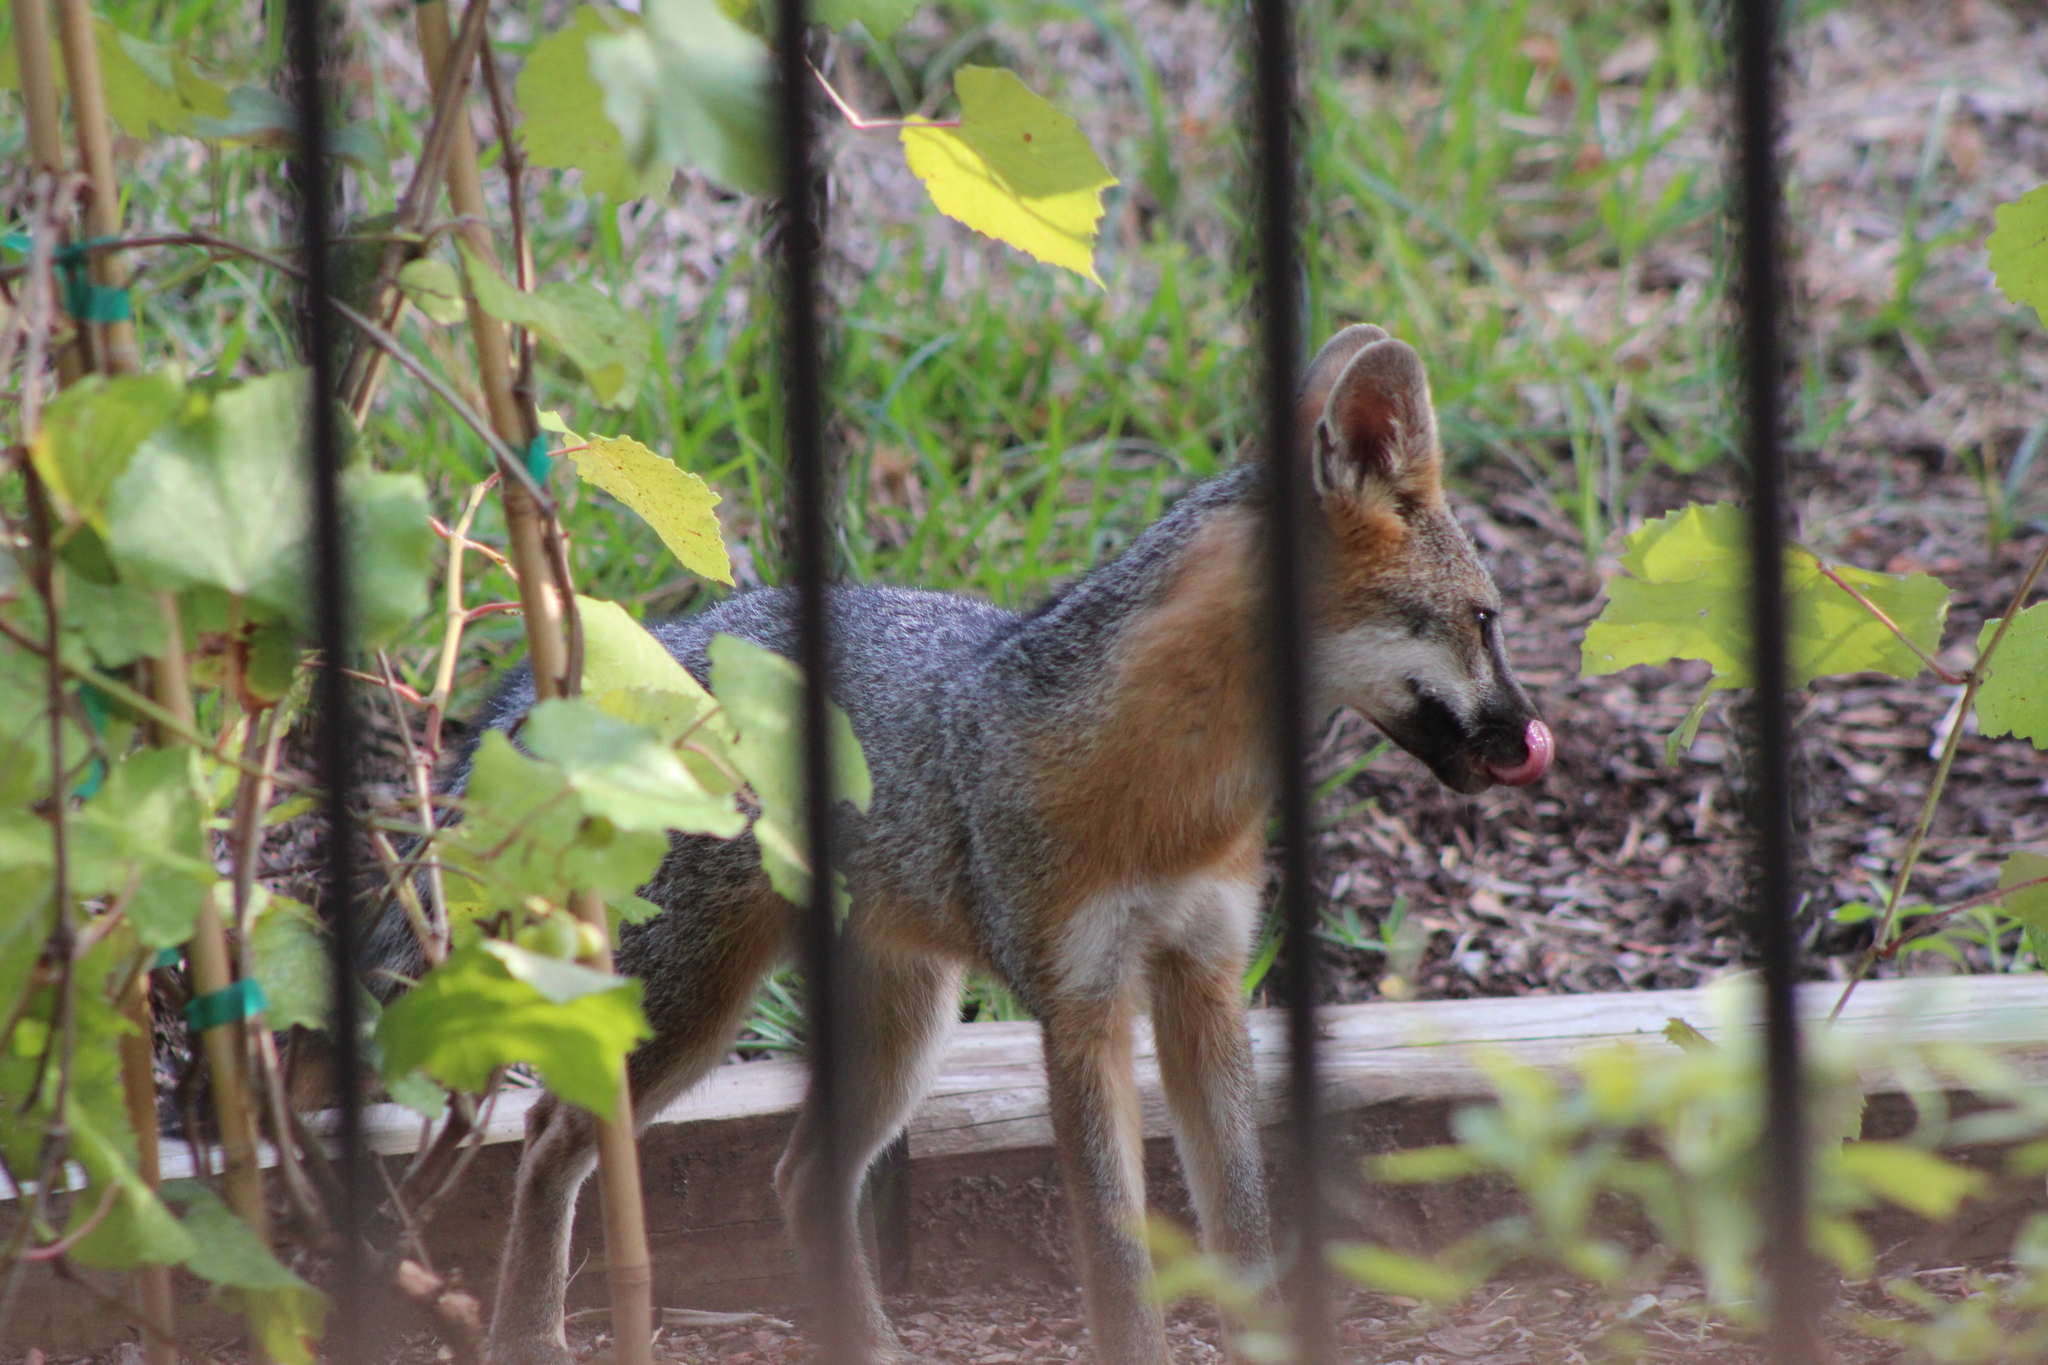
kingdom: Animalia
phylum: Chordata
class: Mammalia
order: Carnivora
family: Canidae
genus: Urocyon
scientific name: Urocyon cinereoargenteus
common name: Gray fox
